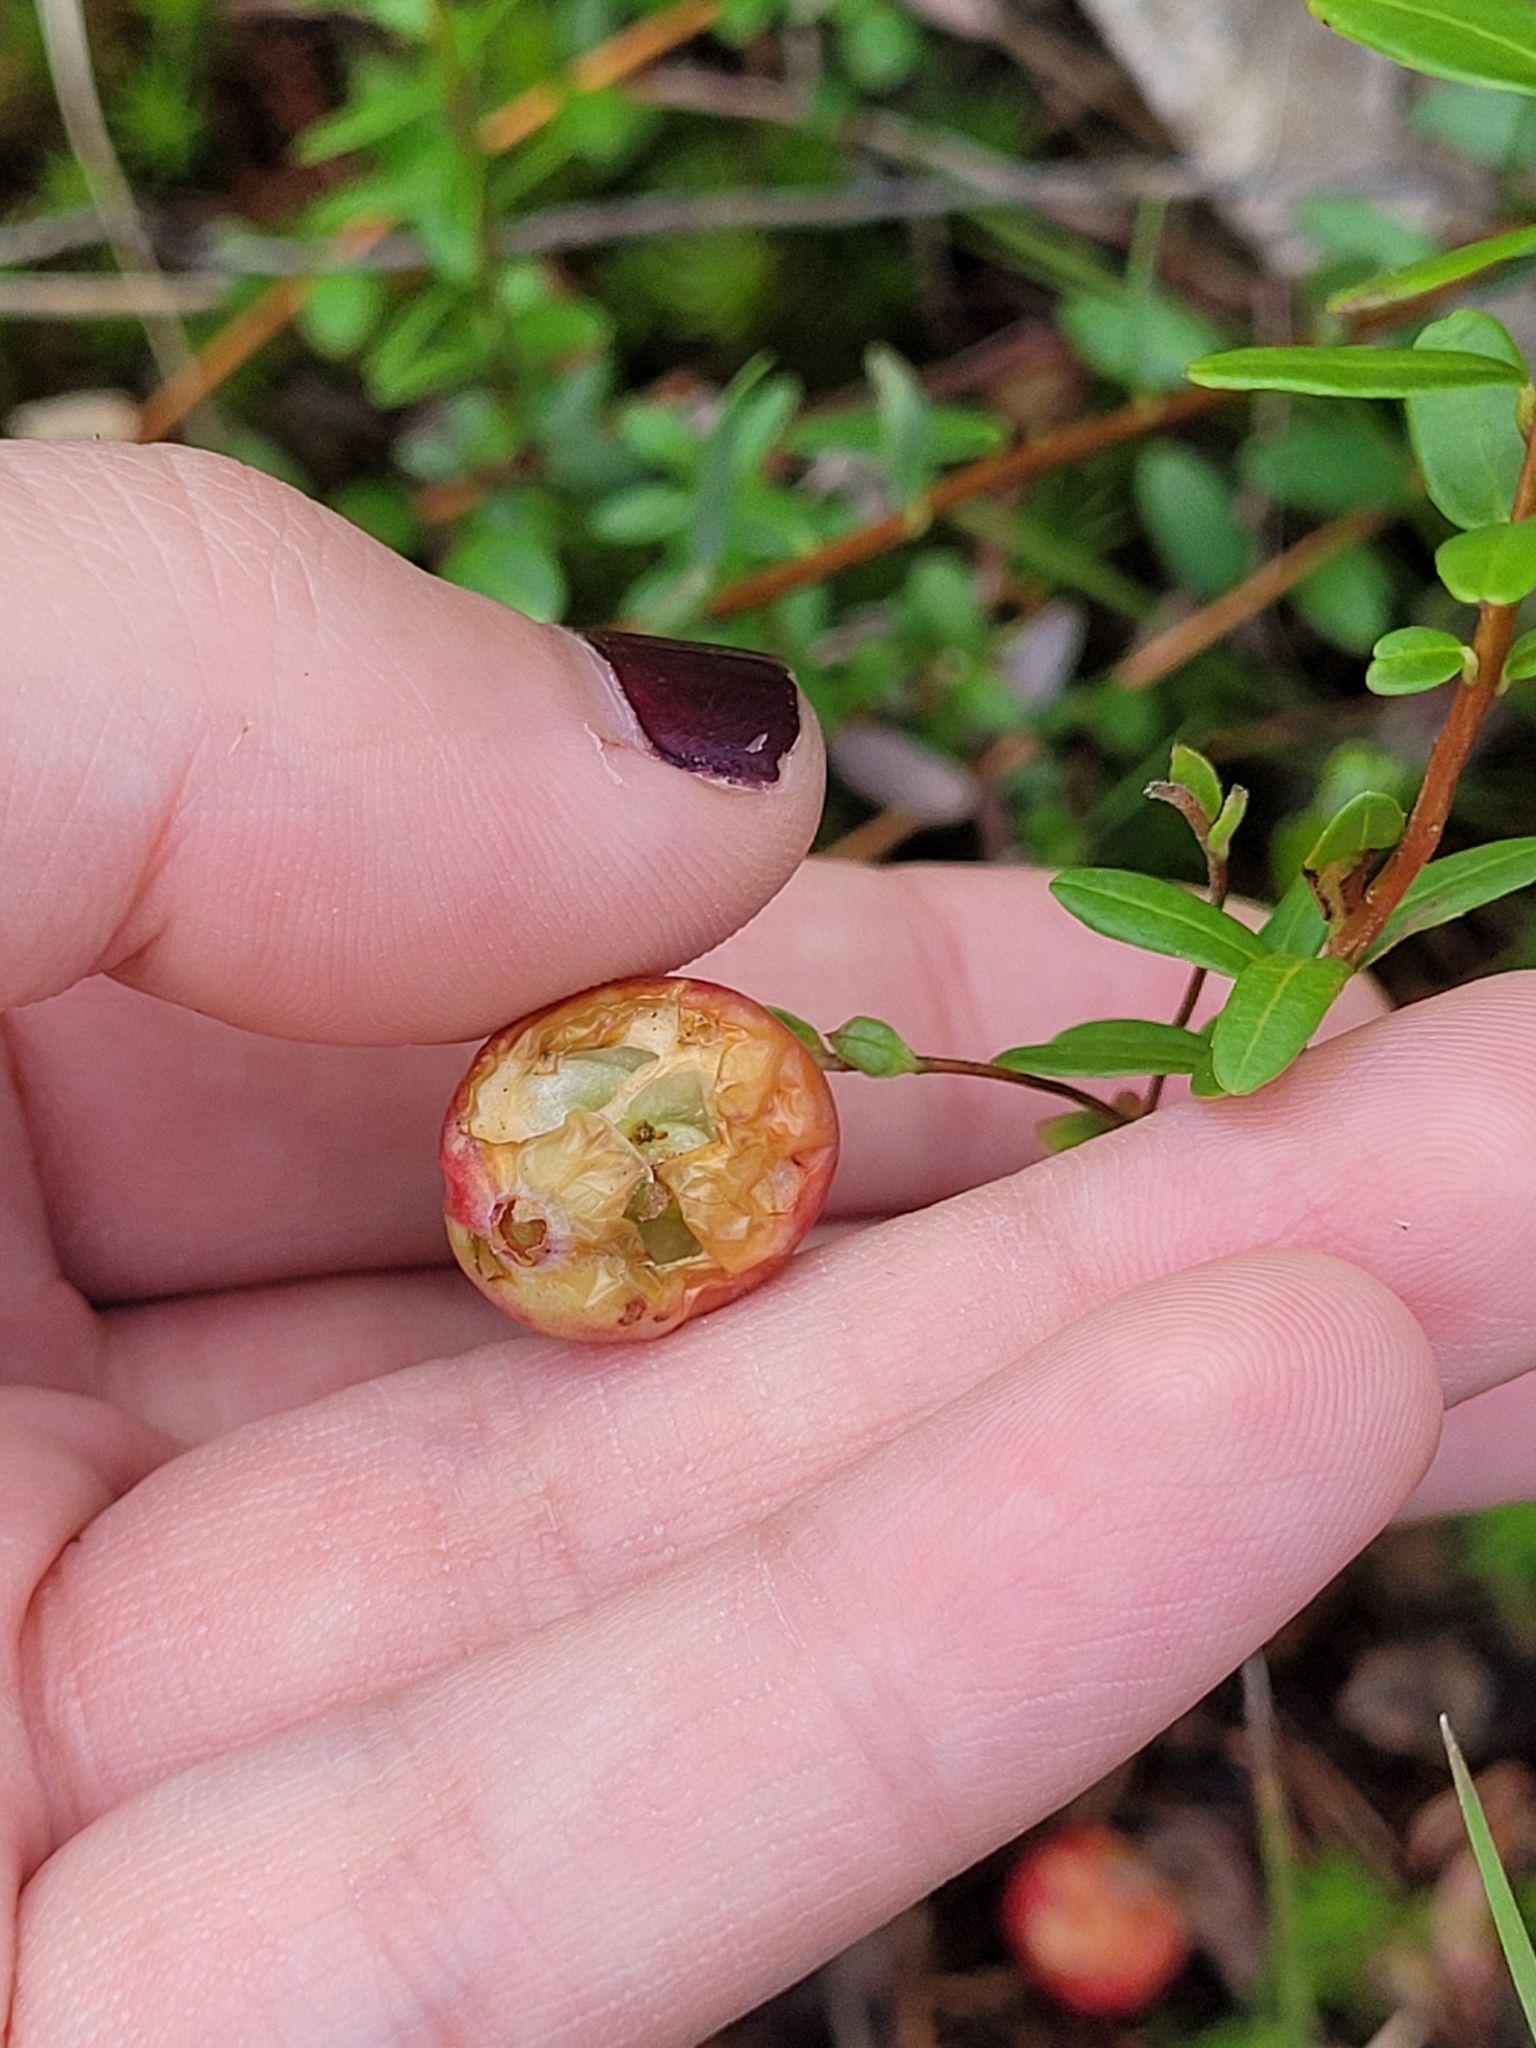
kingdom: Plantae
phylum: Tracheophyta
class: Magnoliopsida
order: Ericales
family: Ericaceae
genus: Vaccinium
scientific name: Vaccinium macrocarpon
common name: American cranberry
